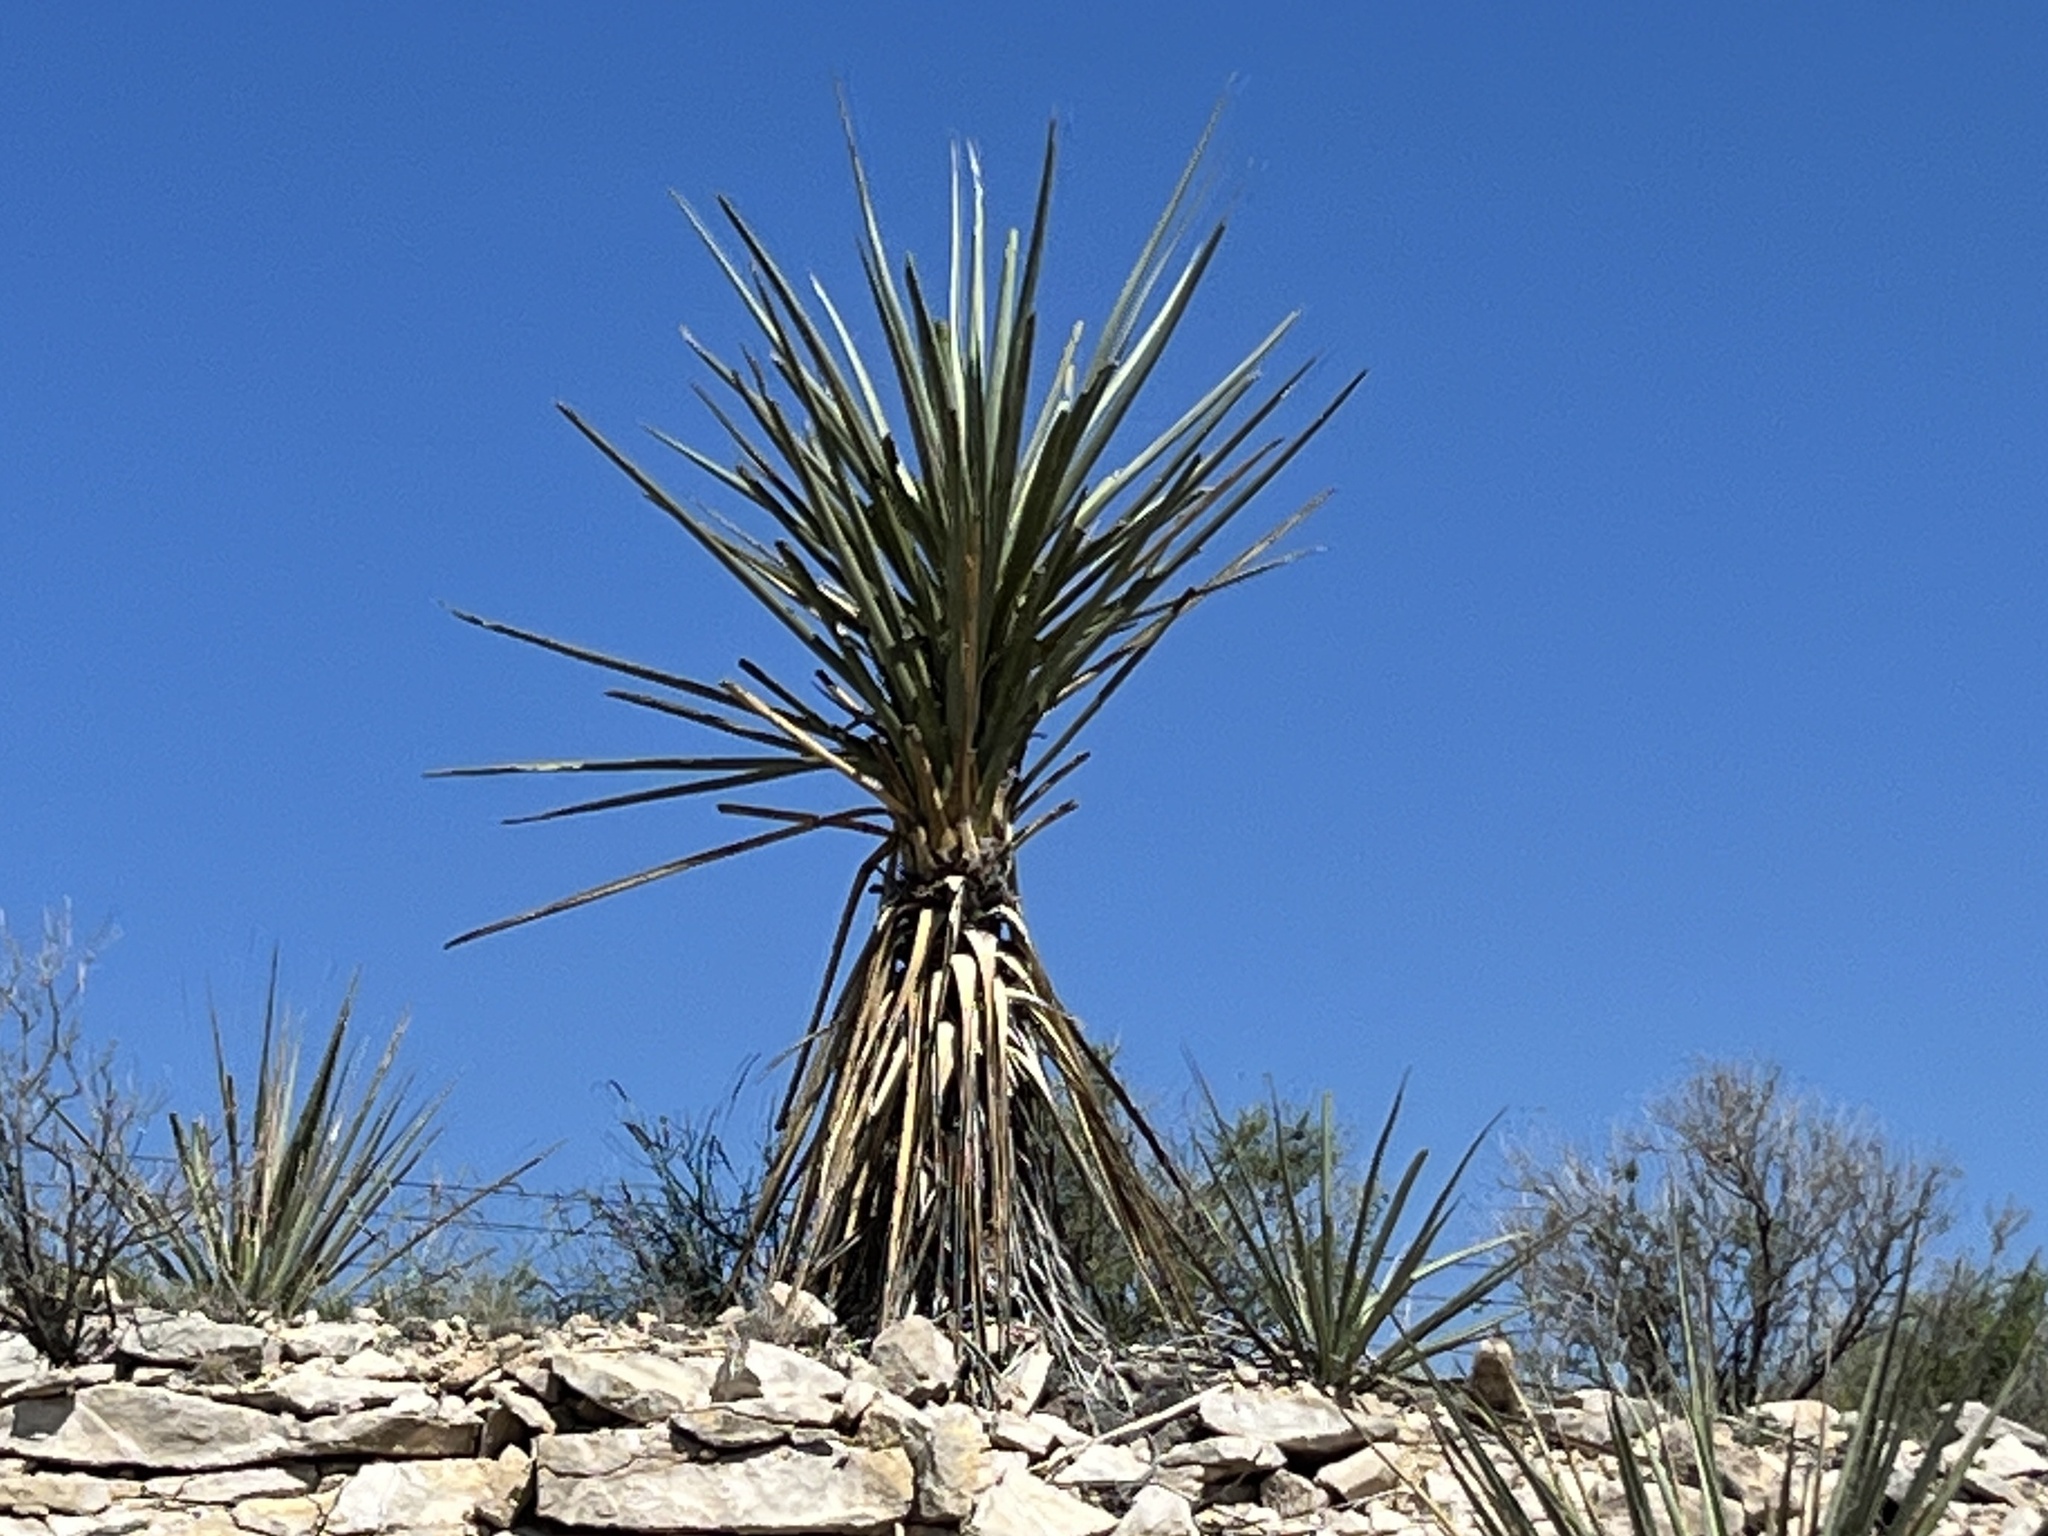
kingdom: Plantae
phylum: Tracheophyta
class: Liliopsida
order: Asparagales
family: Asparagaceae
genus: Yucca
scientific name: Yucca treculiana
